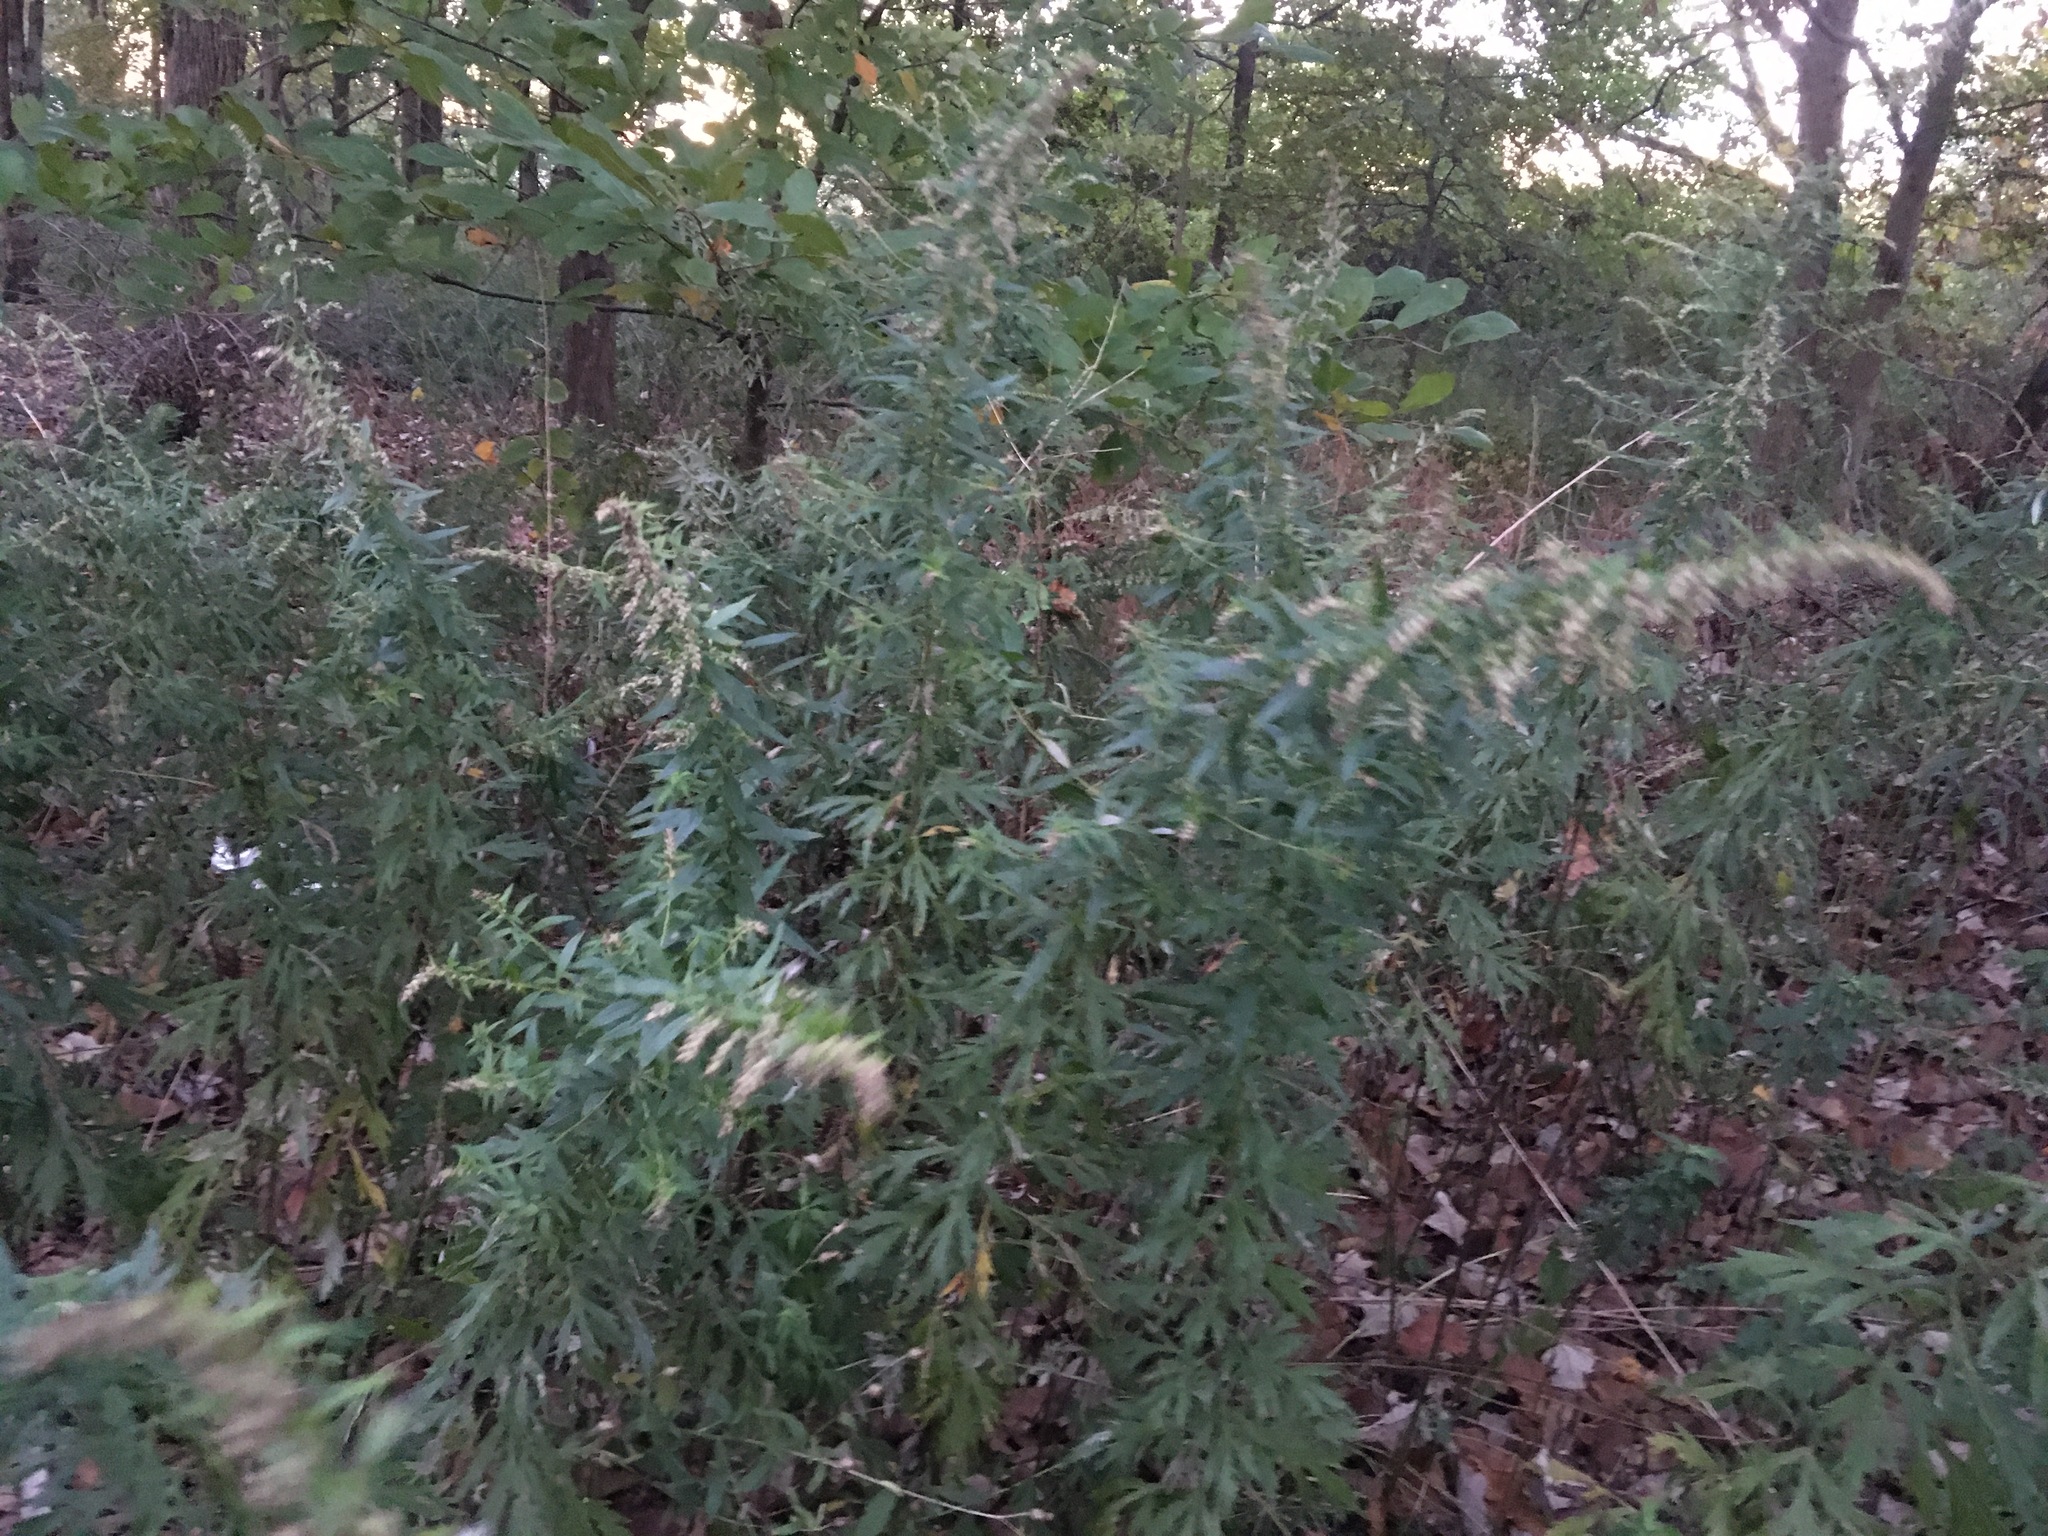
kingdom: Plantae
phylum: Tracheophyta
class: Magnoliopsida
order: Asterales
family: Asteraceae
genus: Artemisia
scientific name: Artemisia vulgaris
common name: Mugwort
